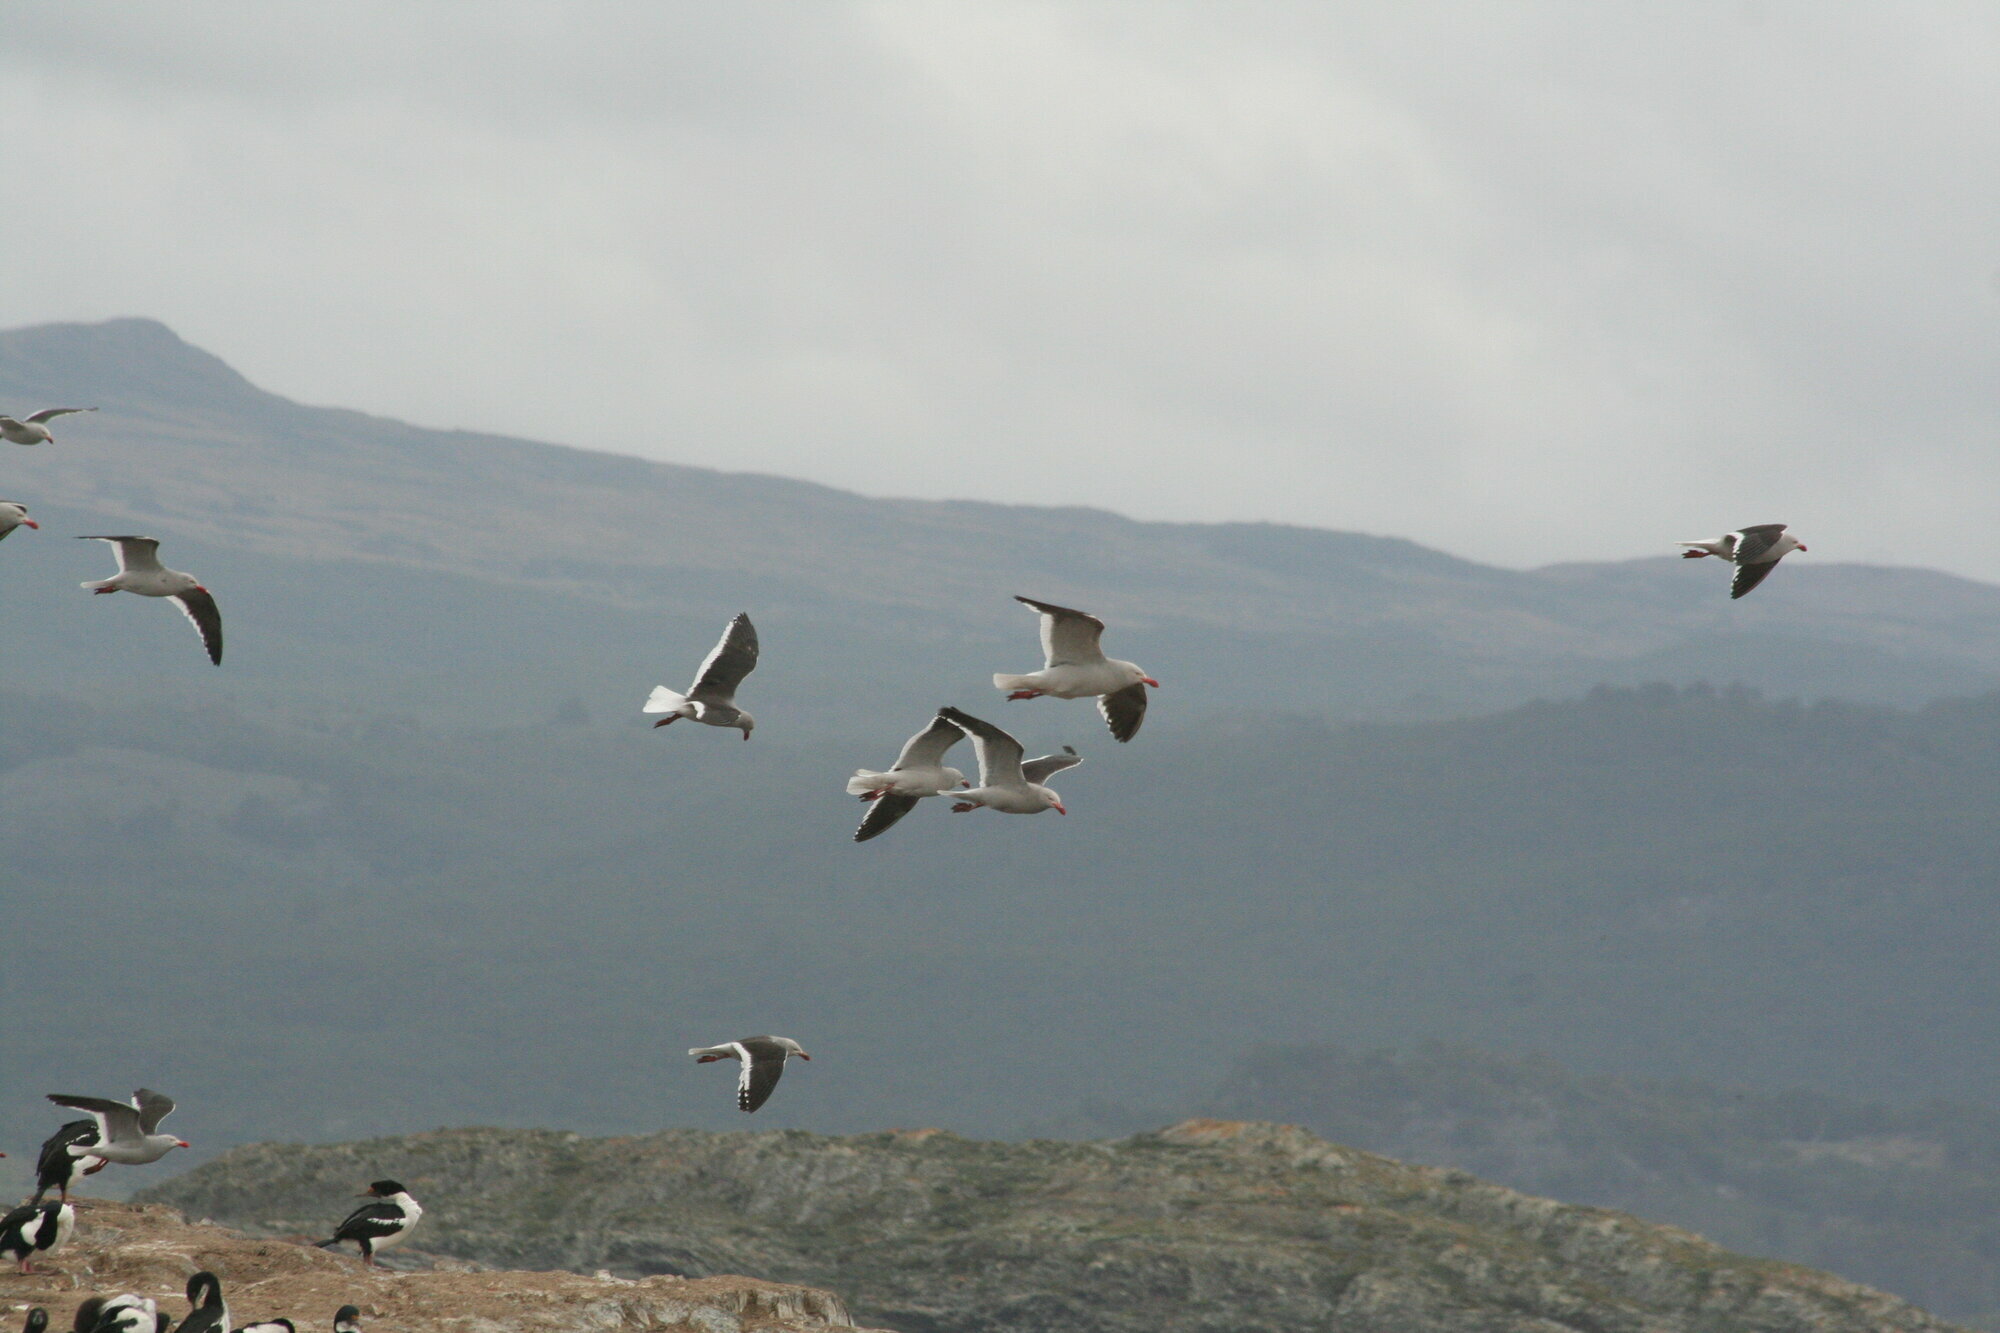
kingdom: Animalia
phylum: Chordata
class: Aves
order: Charadriiformes
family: Laridae
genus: Leucophaeus
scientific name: Leucophaeus scoresbii
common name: Dolphin gull
